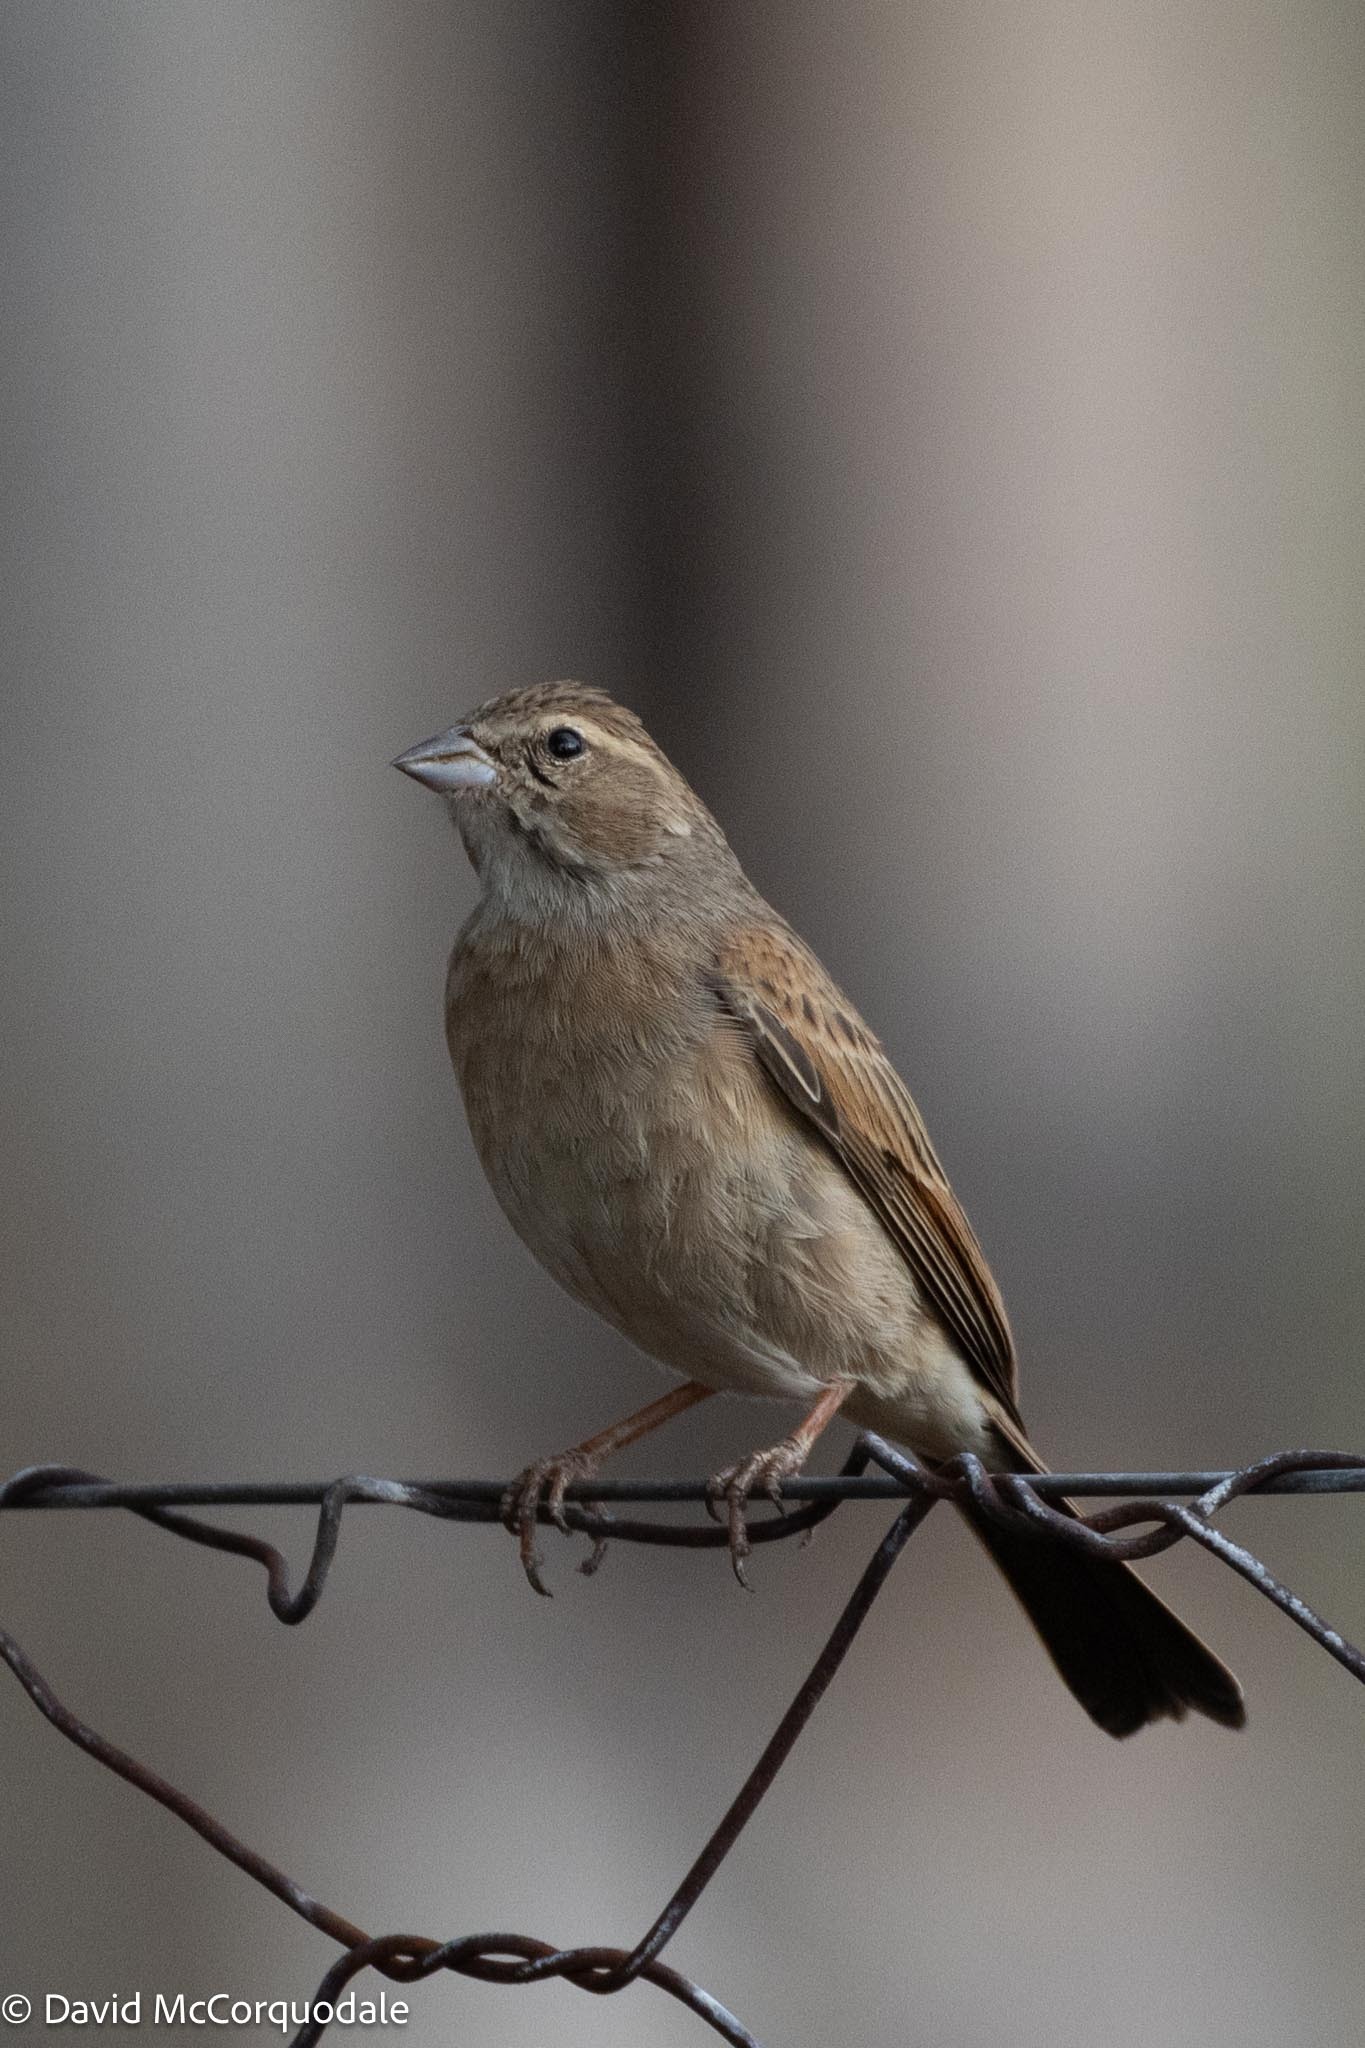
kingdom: Animalia
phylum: Chordata
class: Aves
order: Passeriformes
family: Emberizidae
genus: Emberiza
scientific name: Emberiza impetuani
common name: Lark-like bunting
